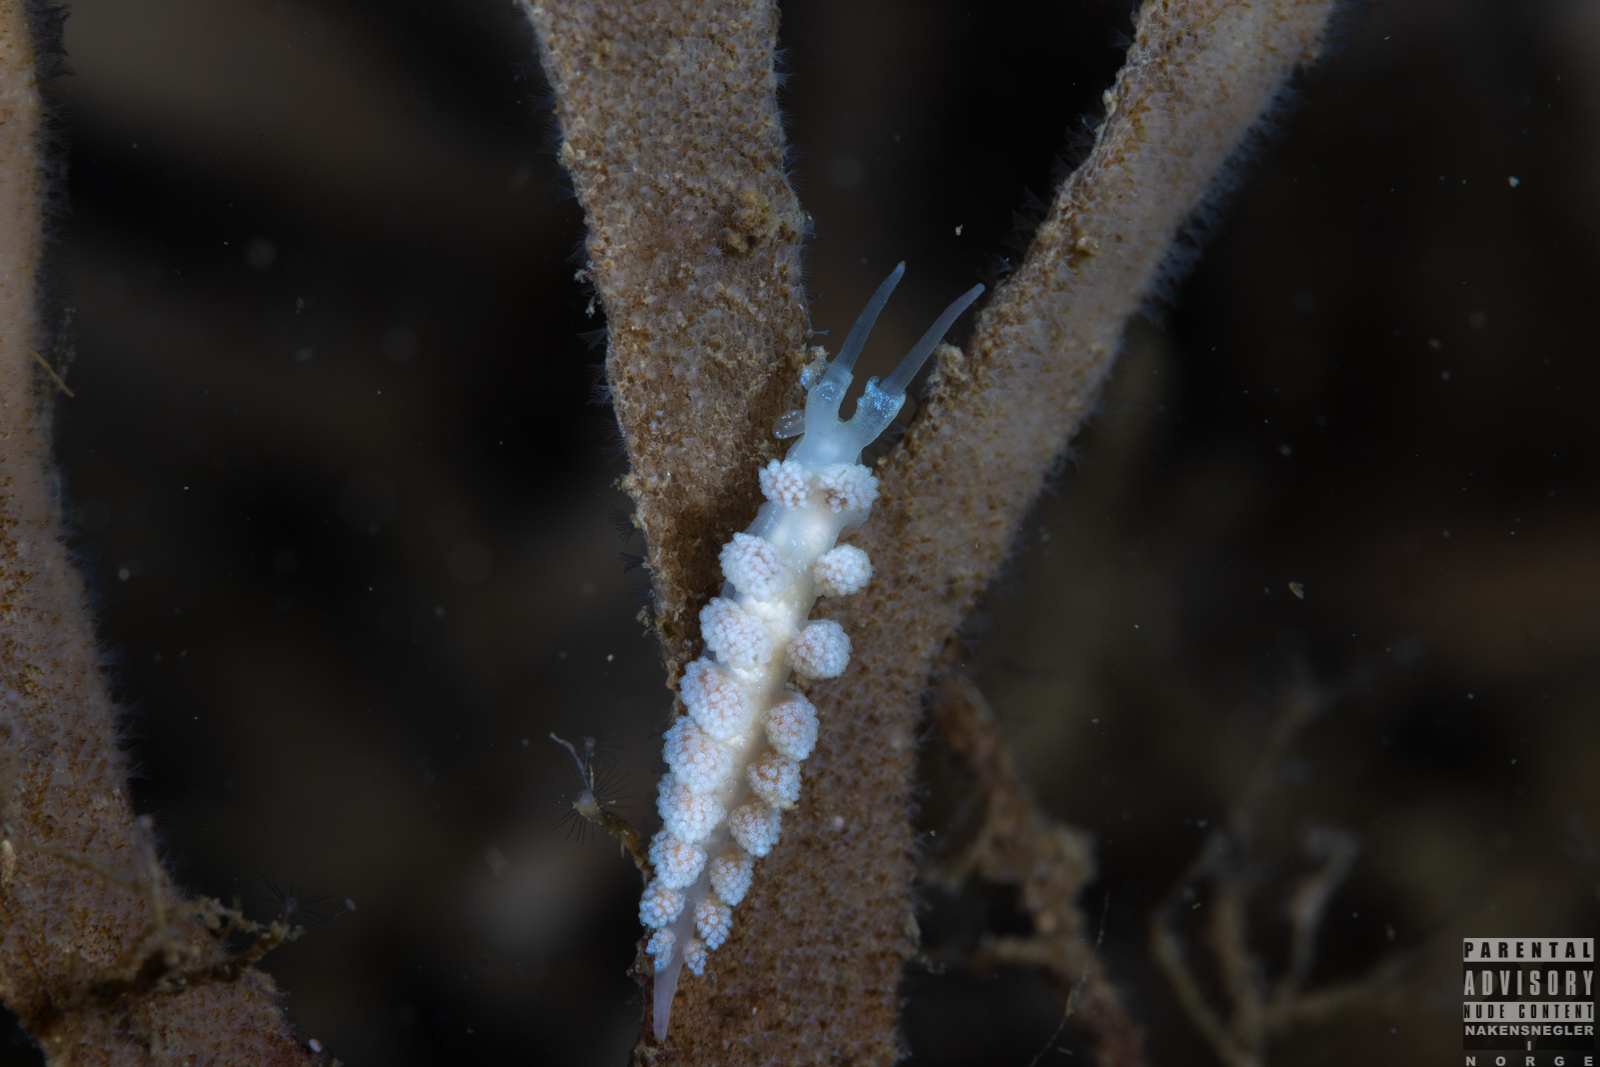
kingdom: Animalia
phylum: Mollusca
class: Gastropoda
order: Nudibranchia
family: Dotidae
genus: Doto
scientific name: Doto fragilis
